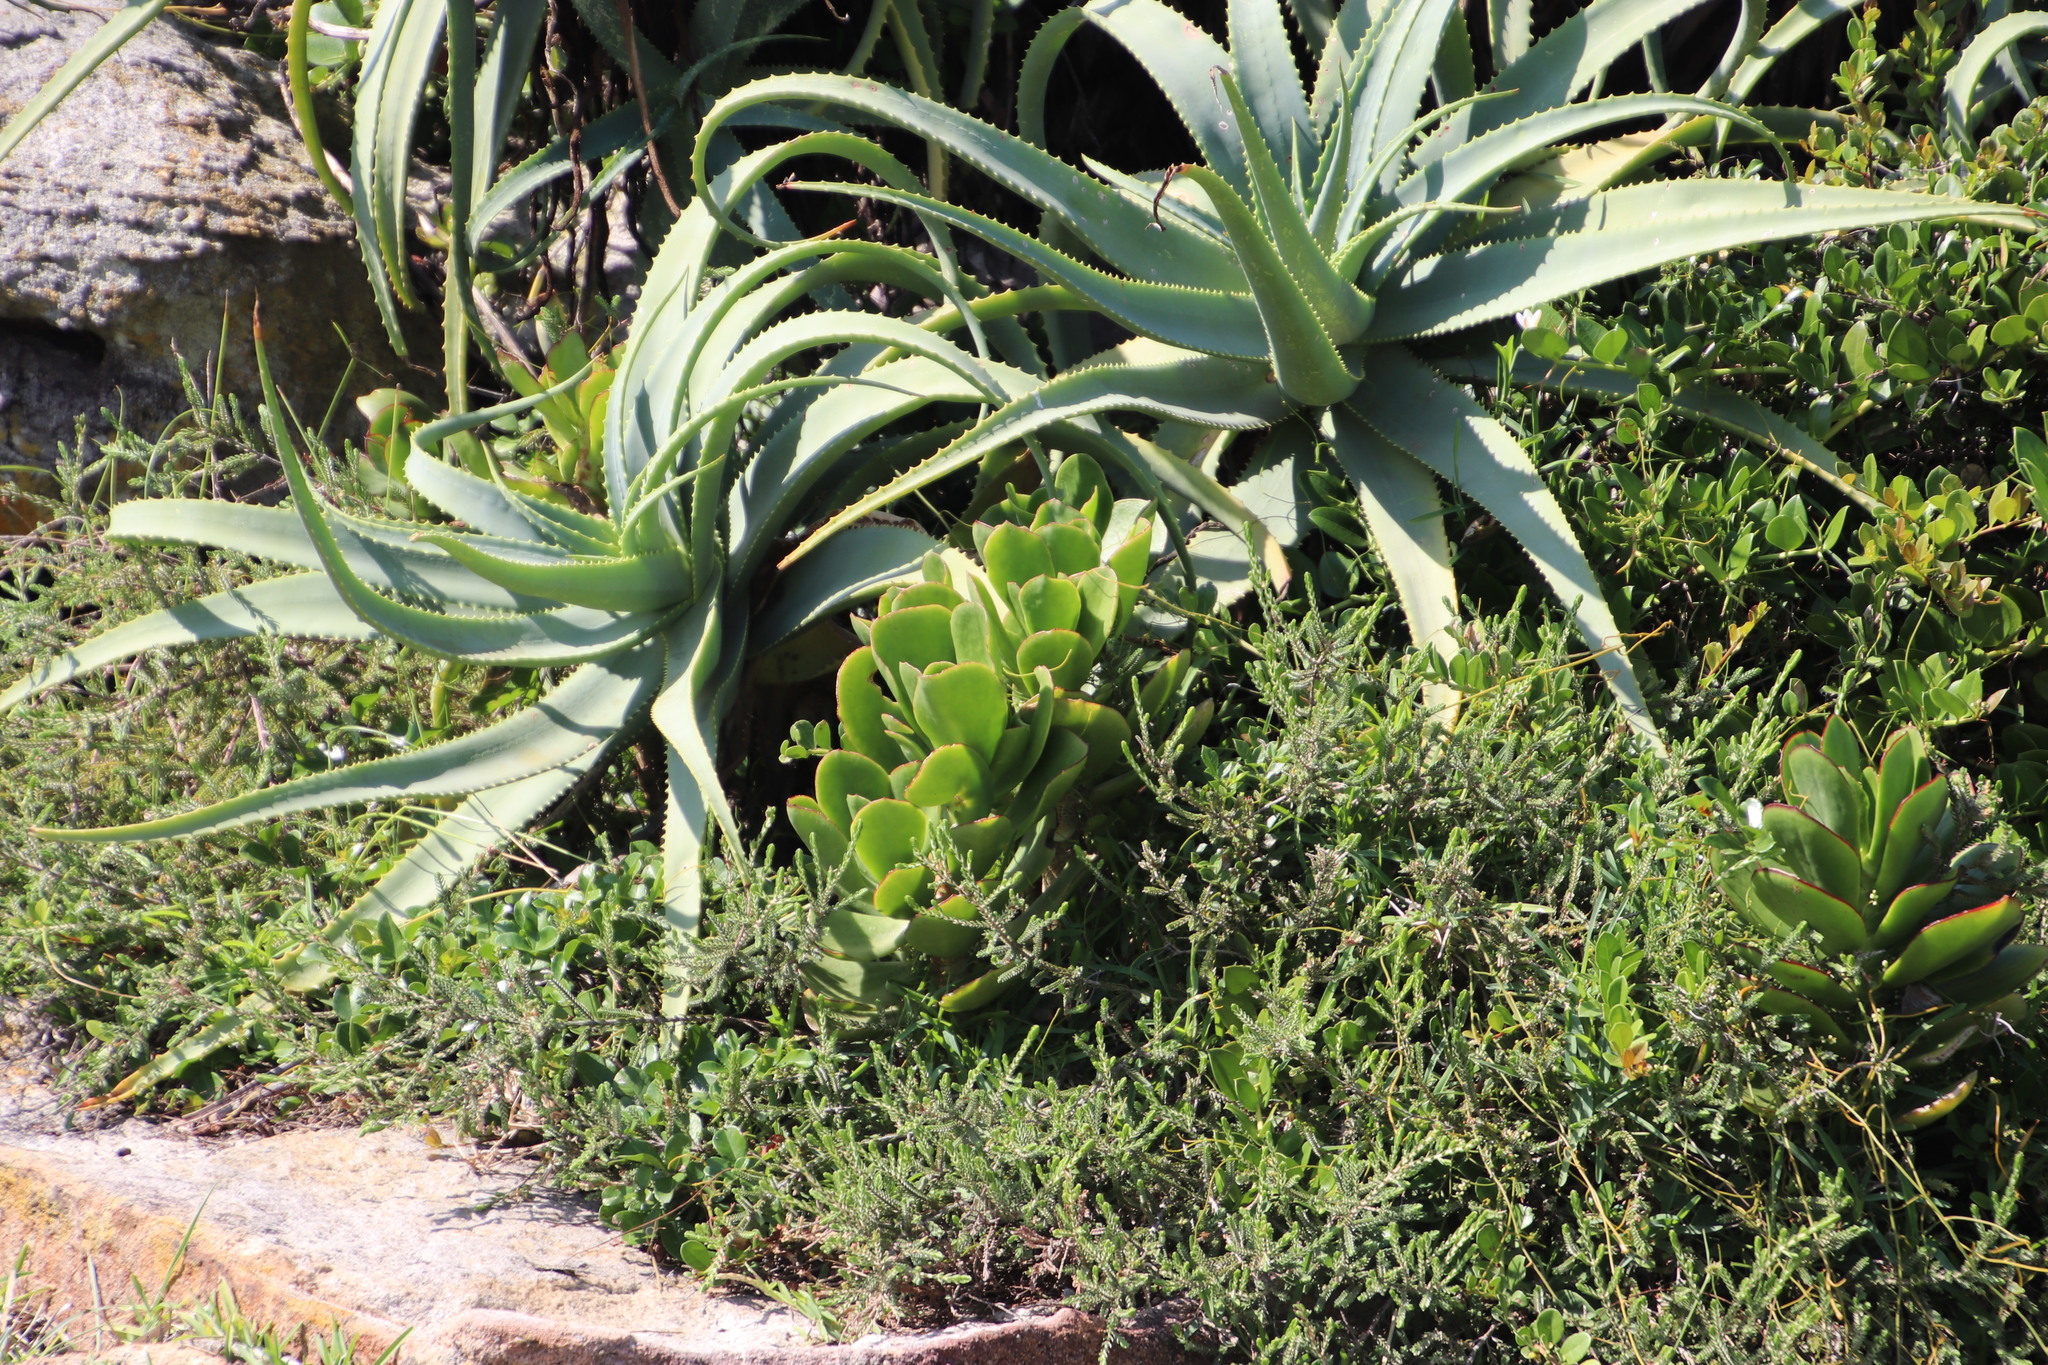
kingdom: Plantae
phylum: Tracheophyta
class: Liliopsida
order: Asparagales
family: Asphodelaceae
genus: Aloe
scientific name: Aloe arborescens
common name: Candelabra aloe
